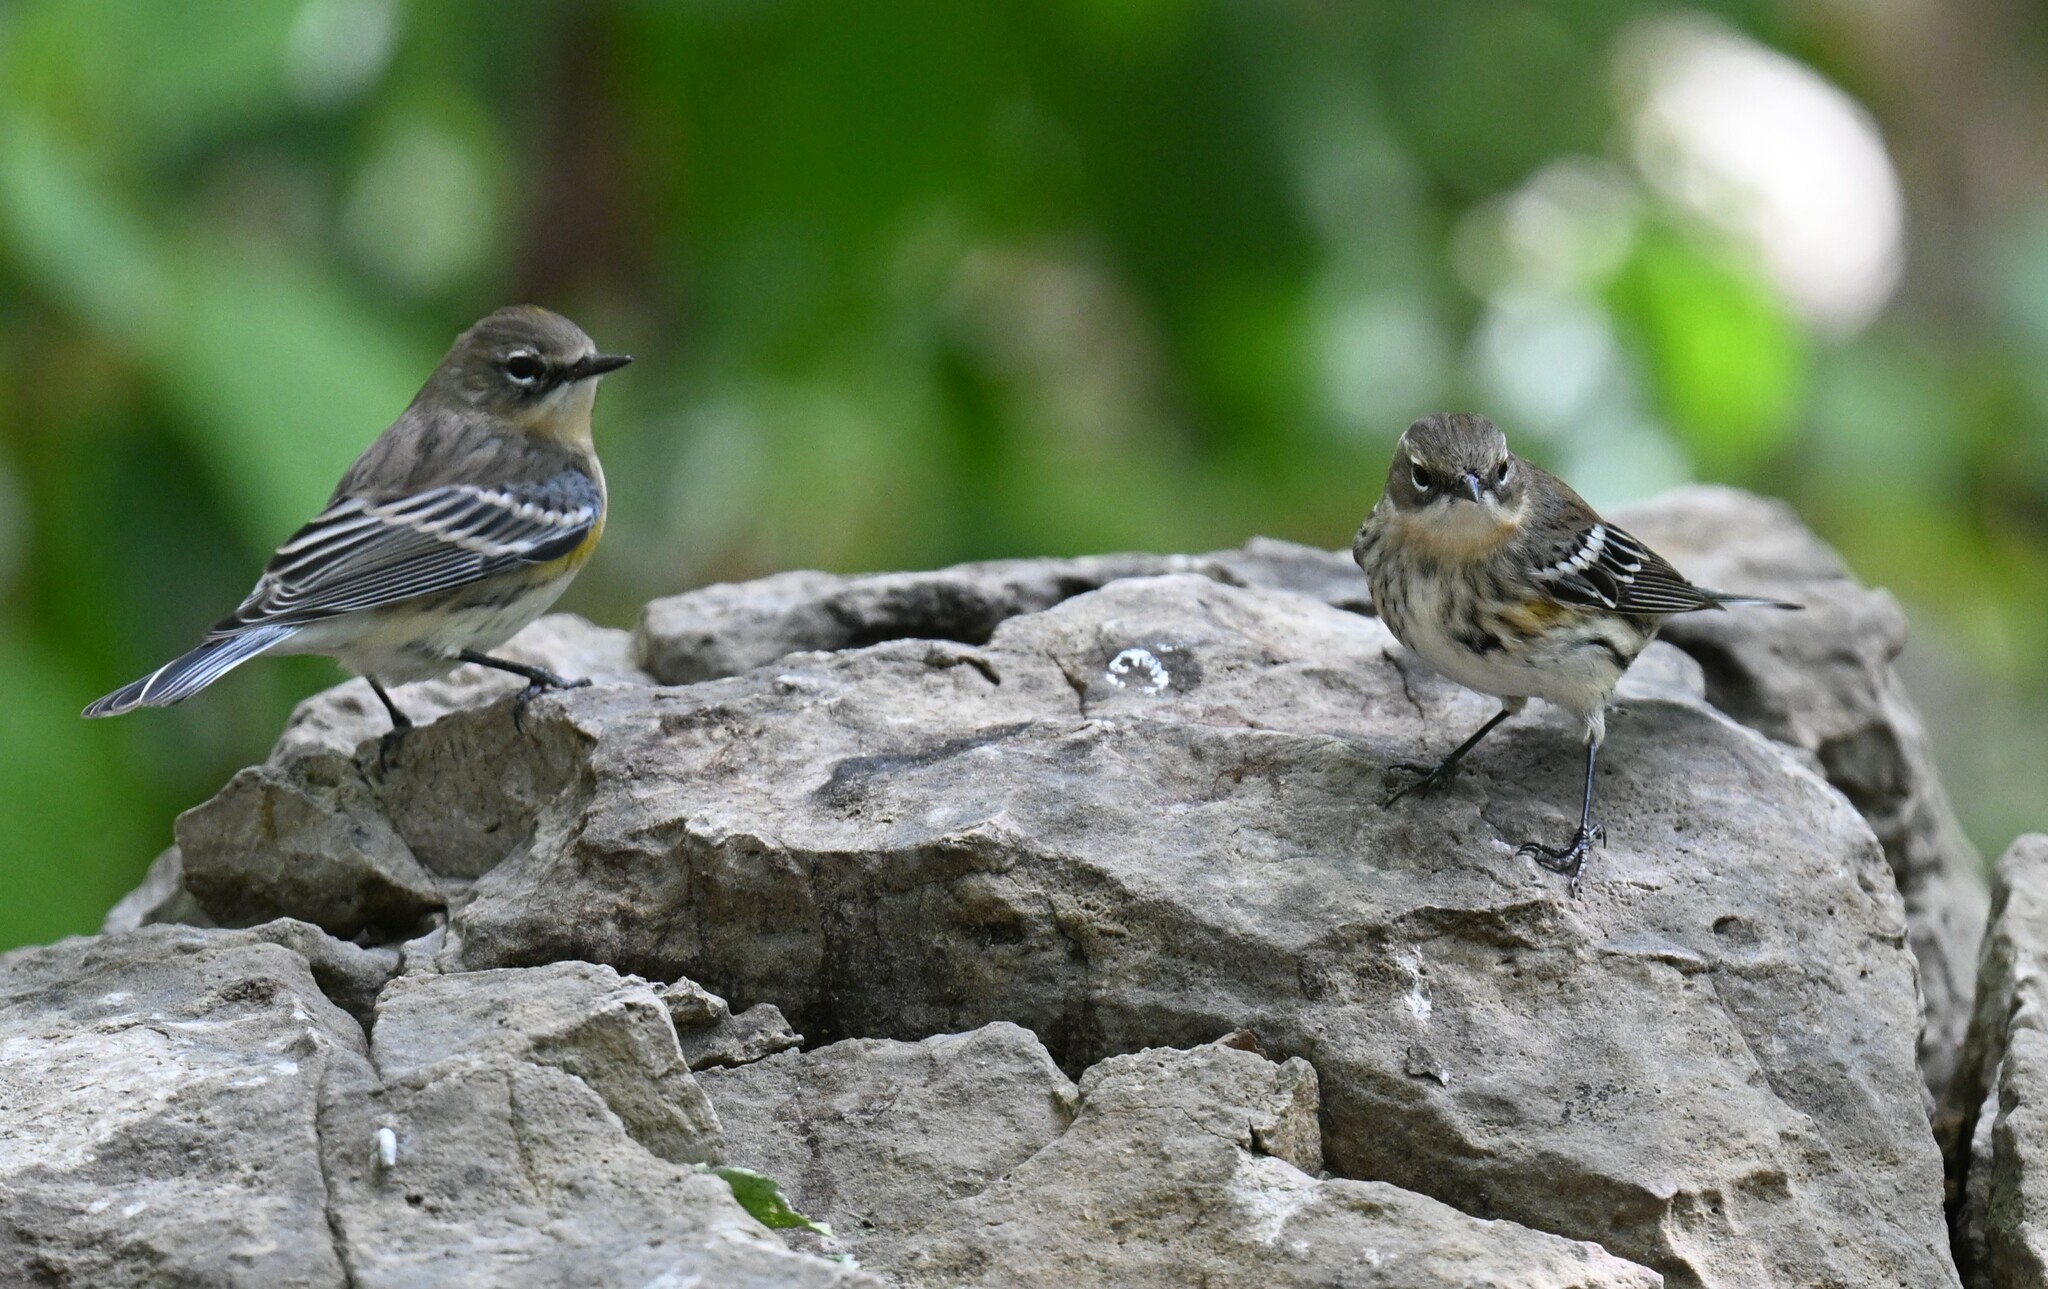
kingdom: Animalia
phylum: Chordata
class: Aves
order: Passeriformes
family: Parulidae
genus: Setophaga
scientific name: Setophaga coronata
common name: Myrtle warbler
